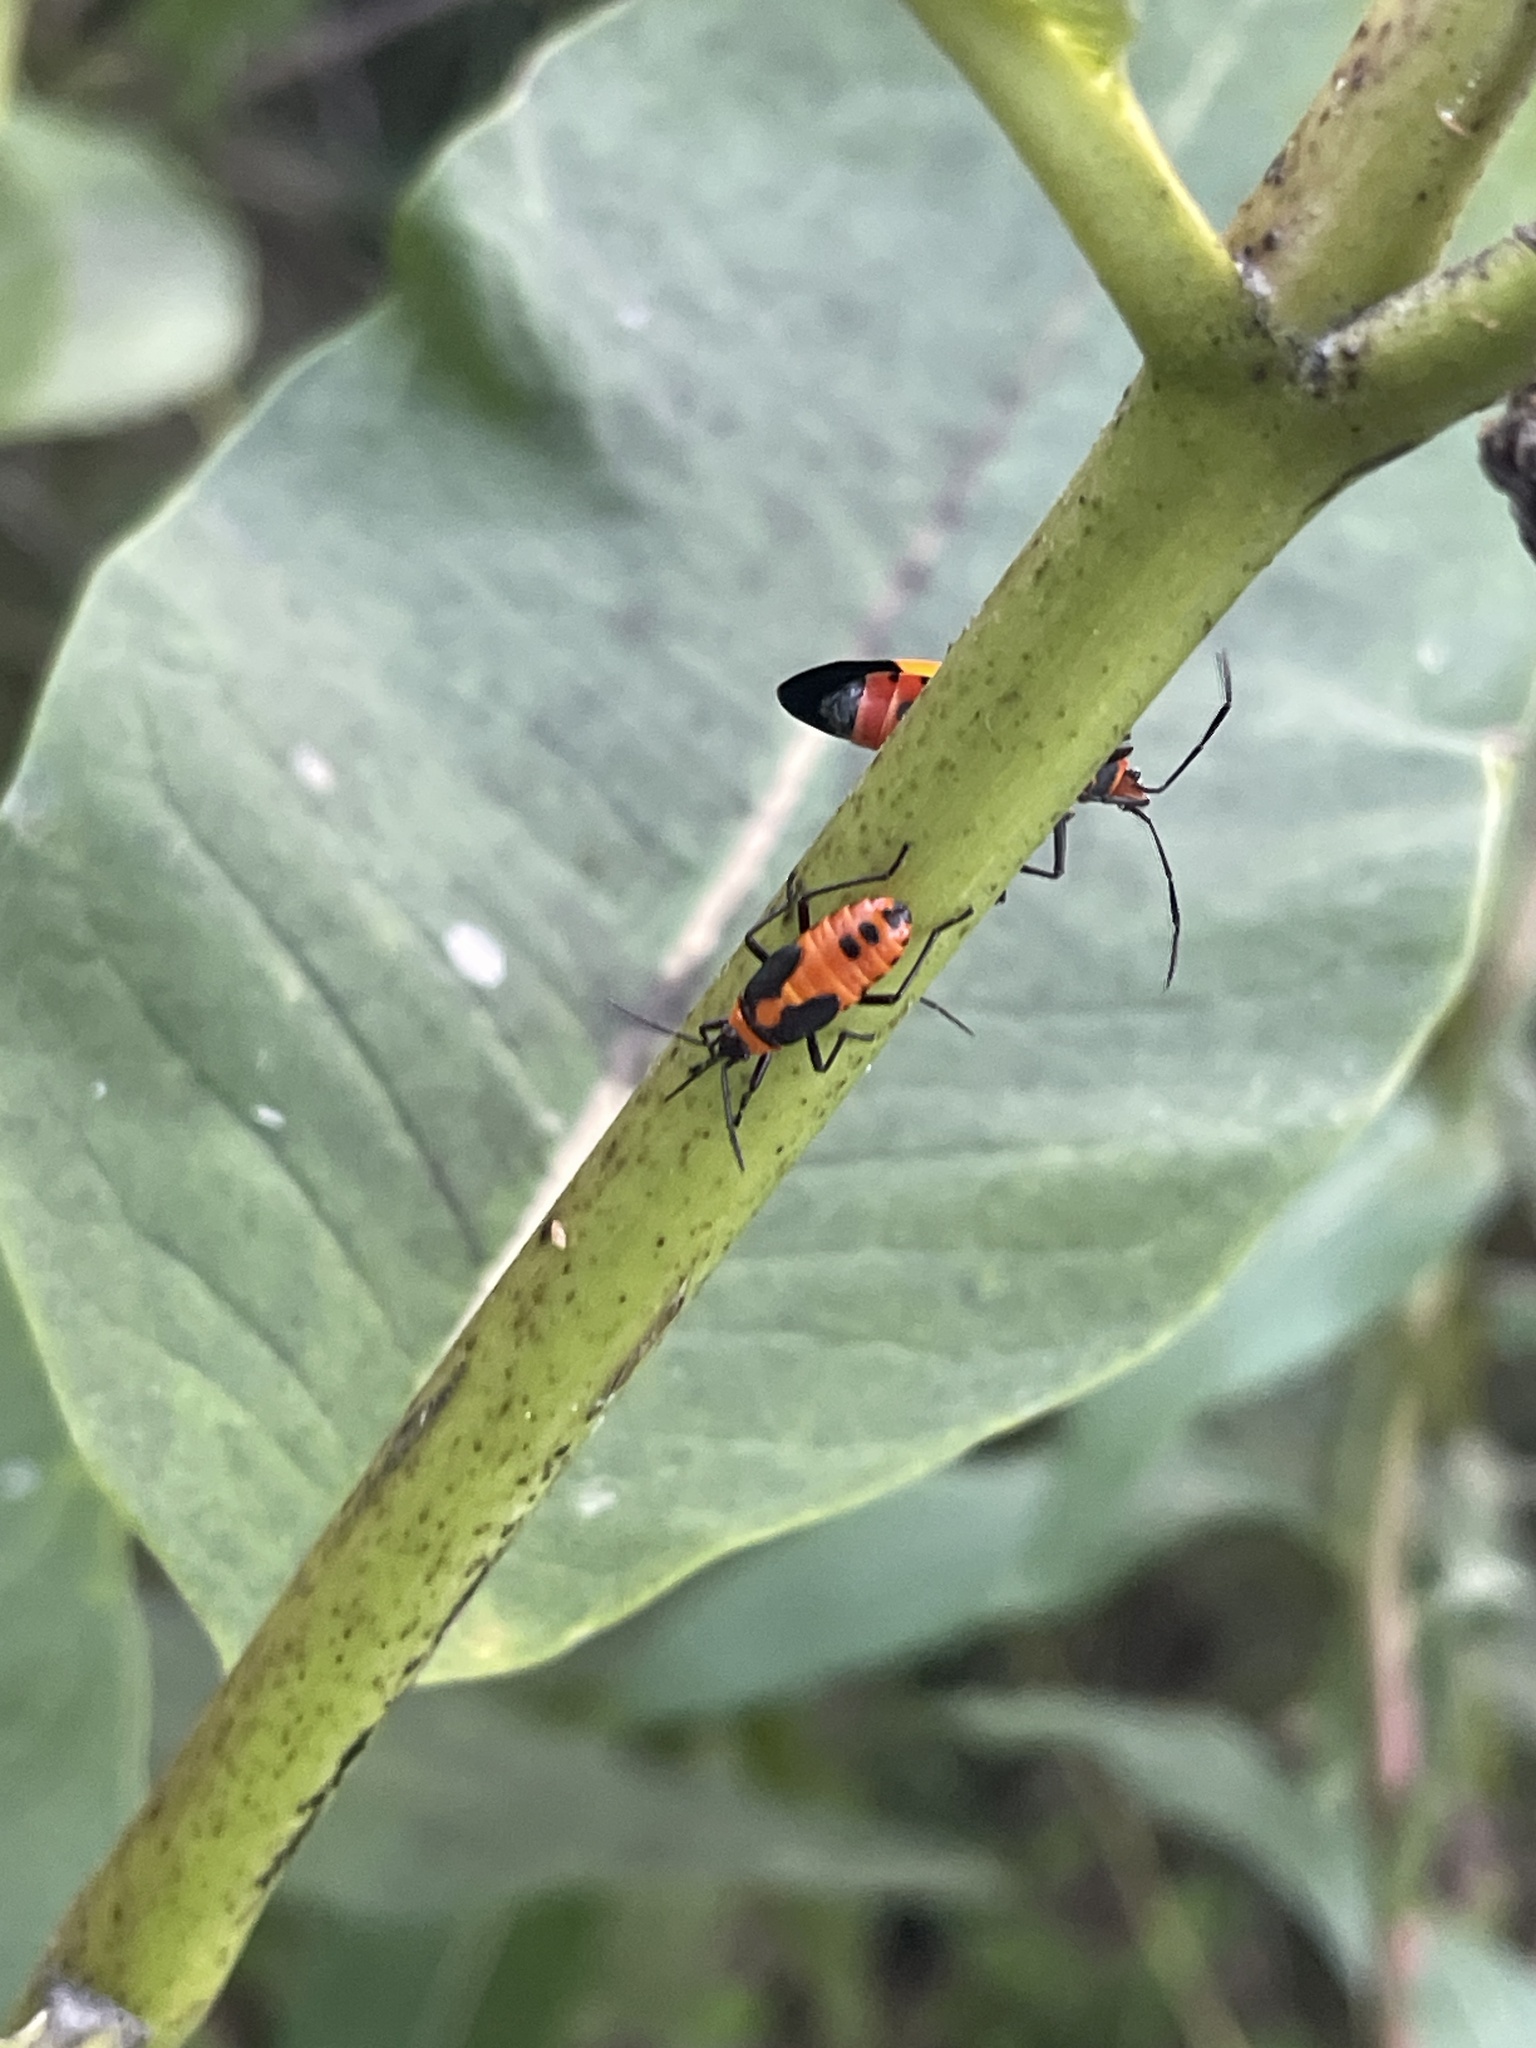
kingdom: Animalia
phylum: Arthropoda
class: Insecta
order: Hemiptera
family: Lygaeidae
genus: Oncopeltus
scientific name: Oncopeltus fasciatus
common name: Large milkweed bug
